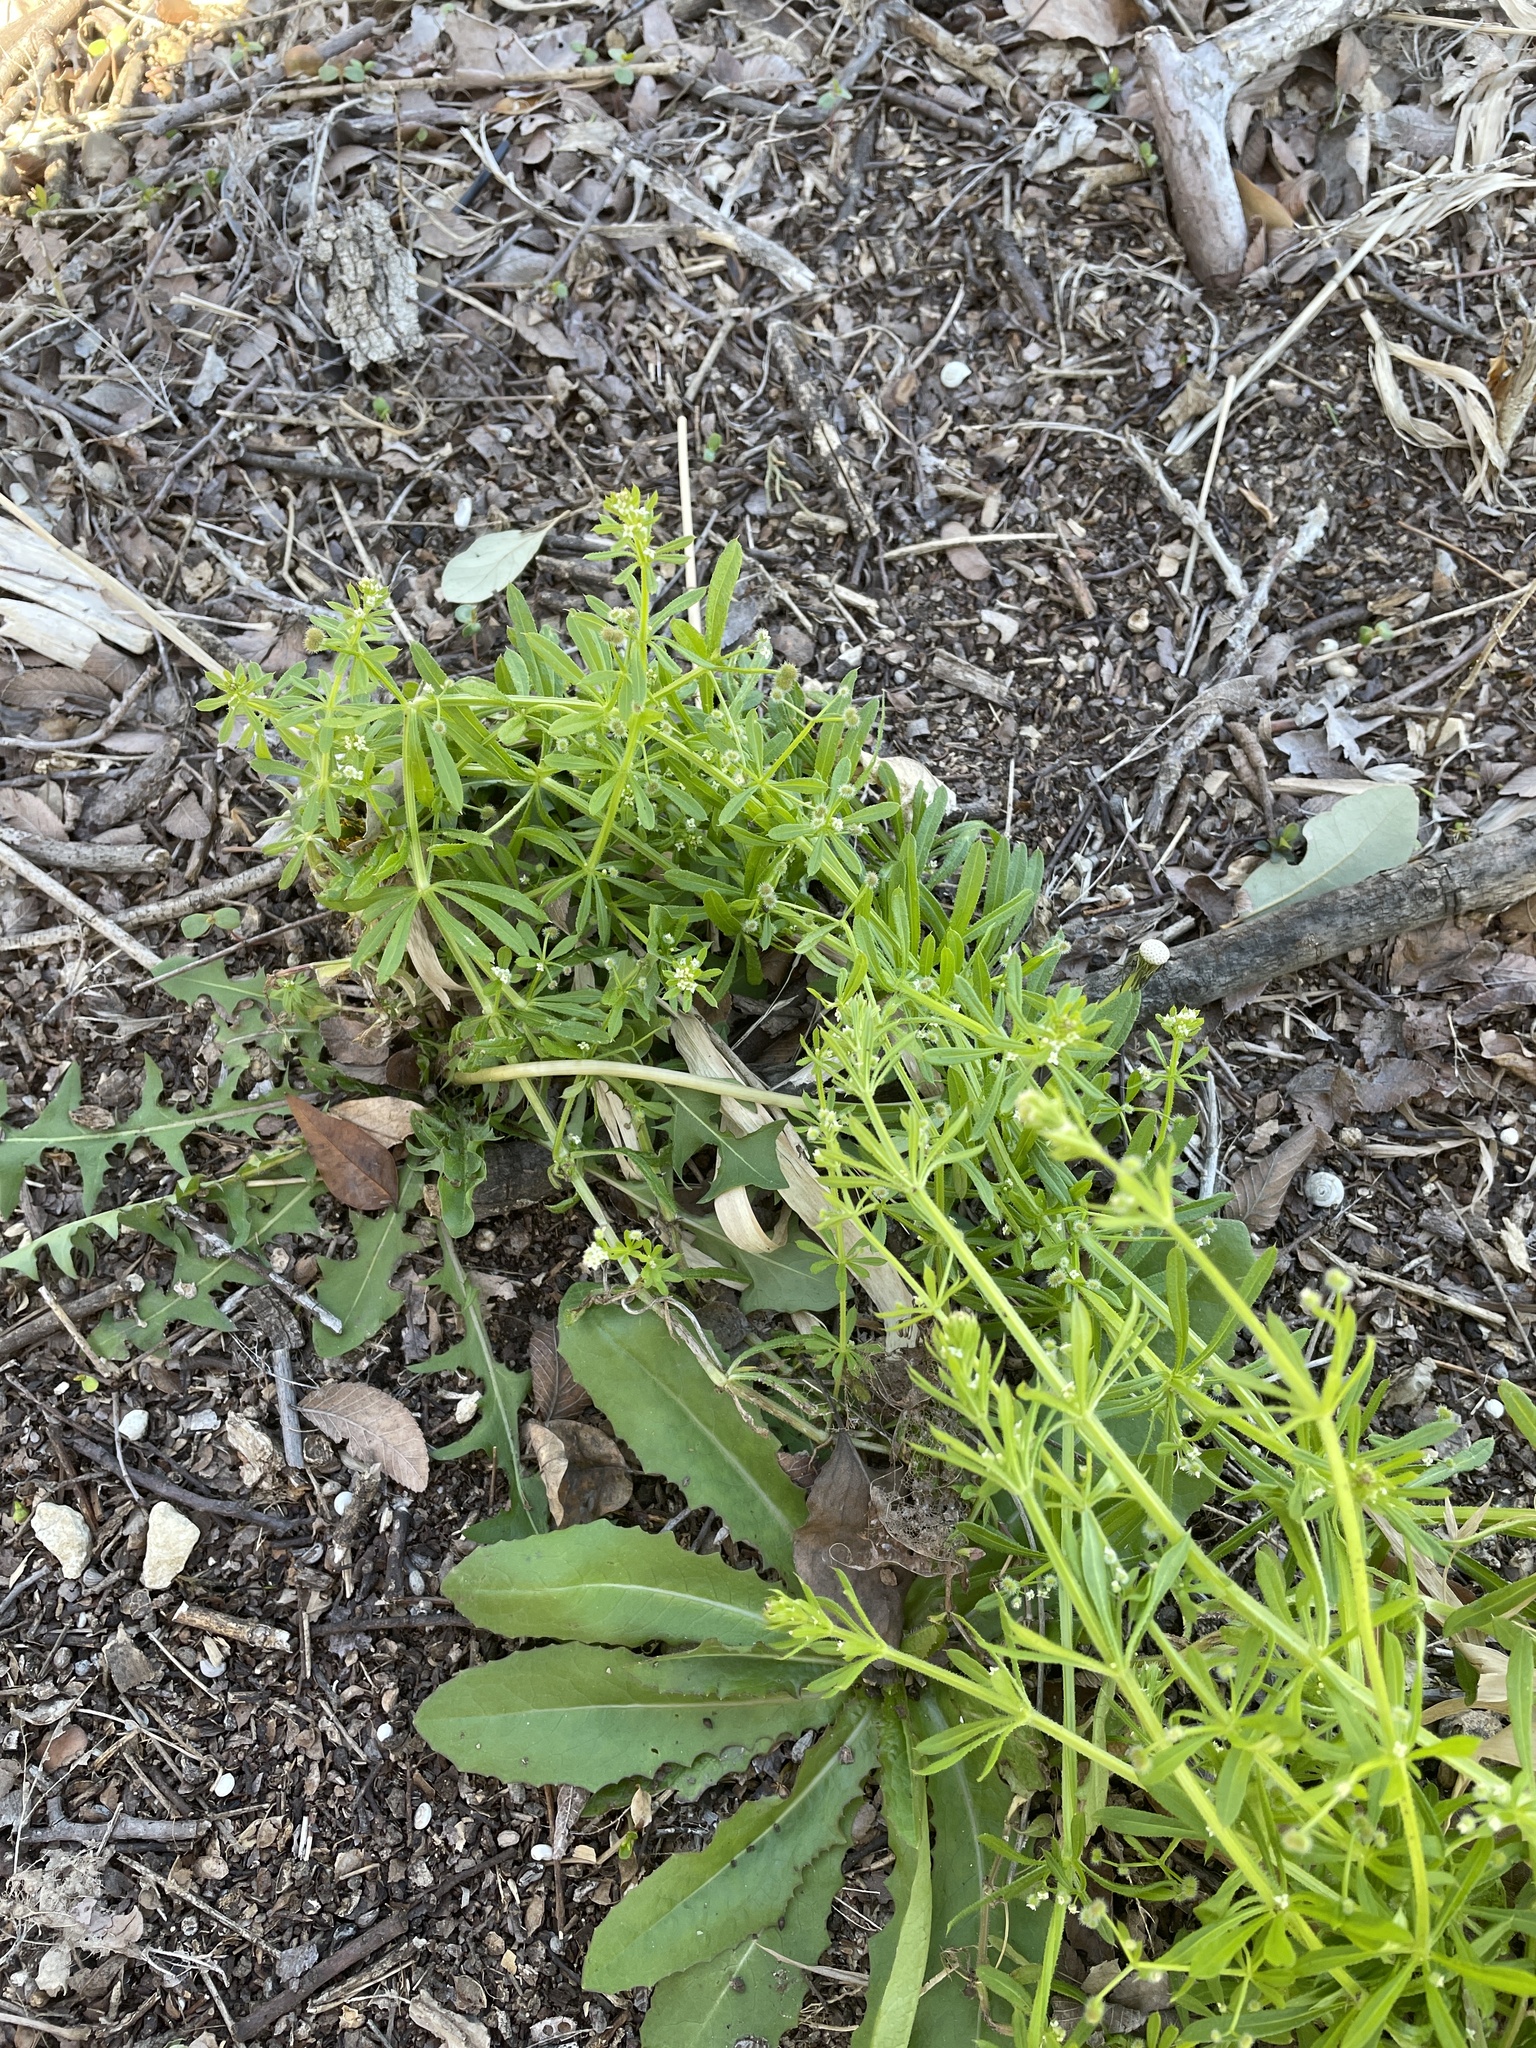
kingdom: Plantae
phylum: Tracheophyta
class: Magnoliopsida
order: Gentianales
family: Rubiaceae
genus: Galium
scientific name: Galium aparine
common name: Cleavers
